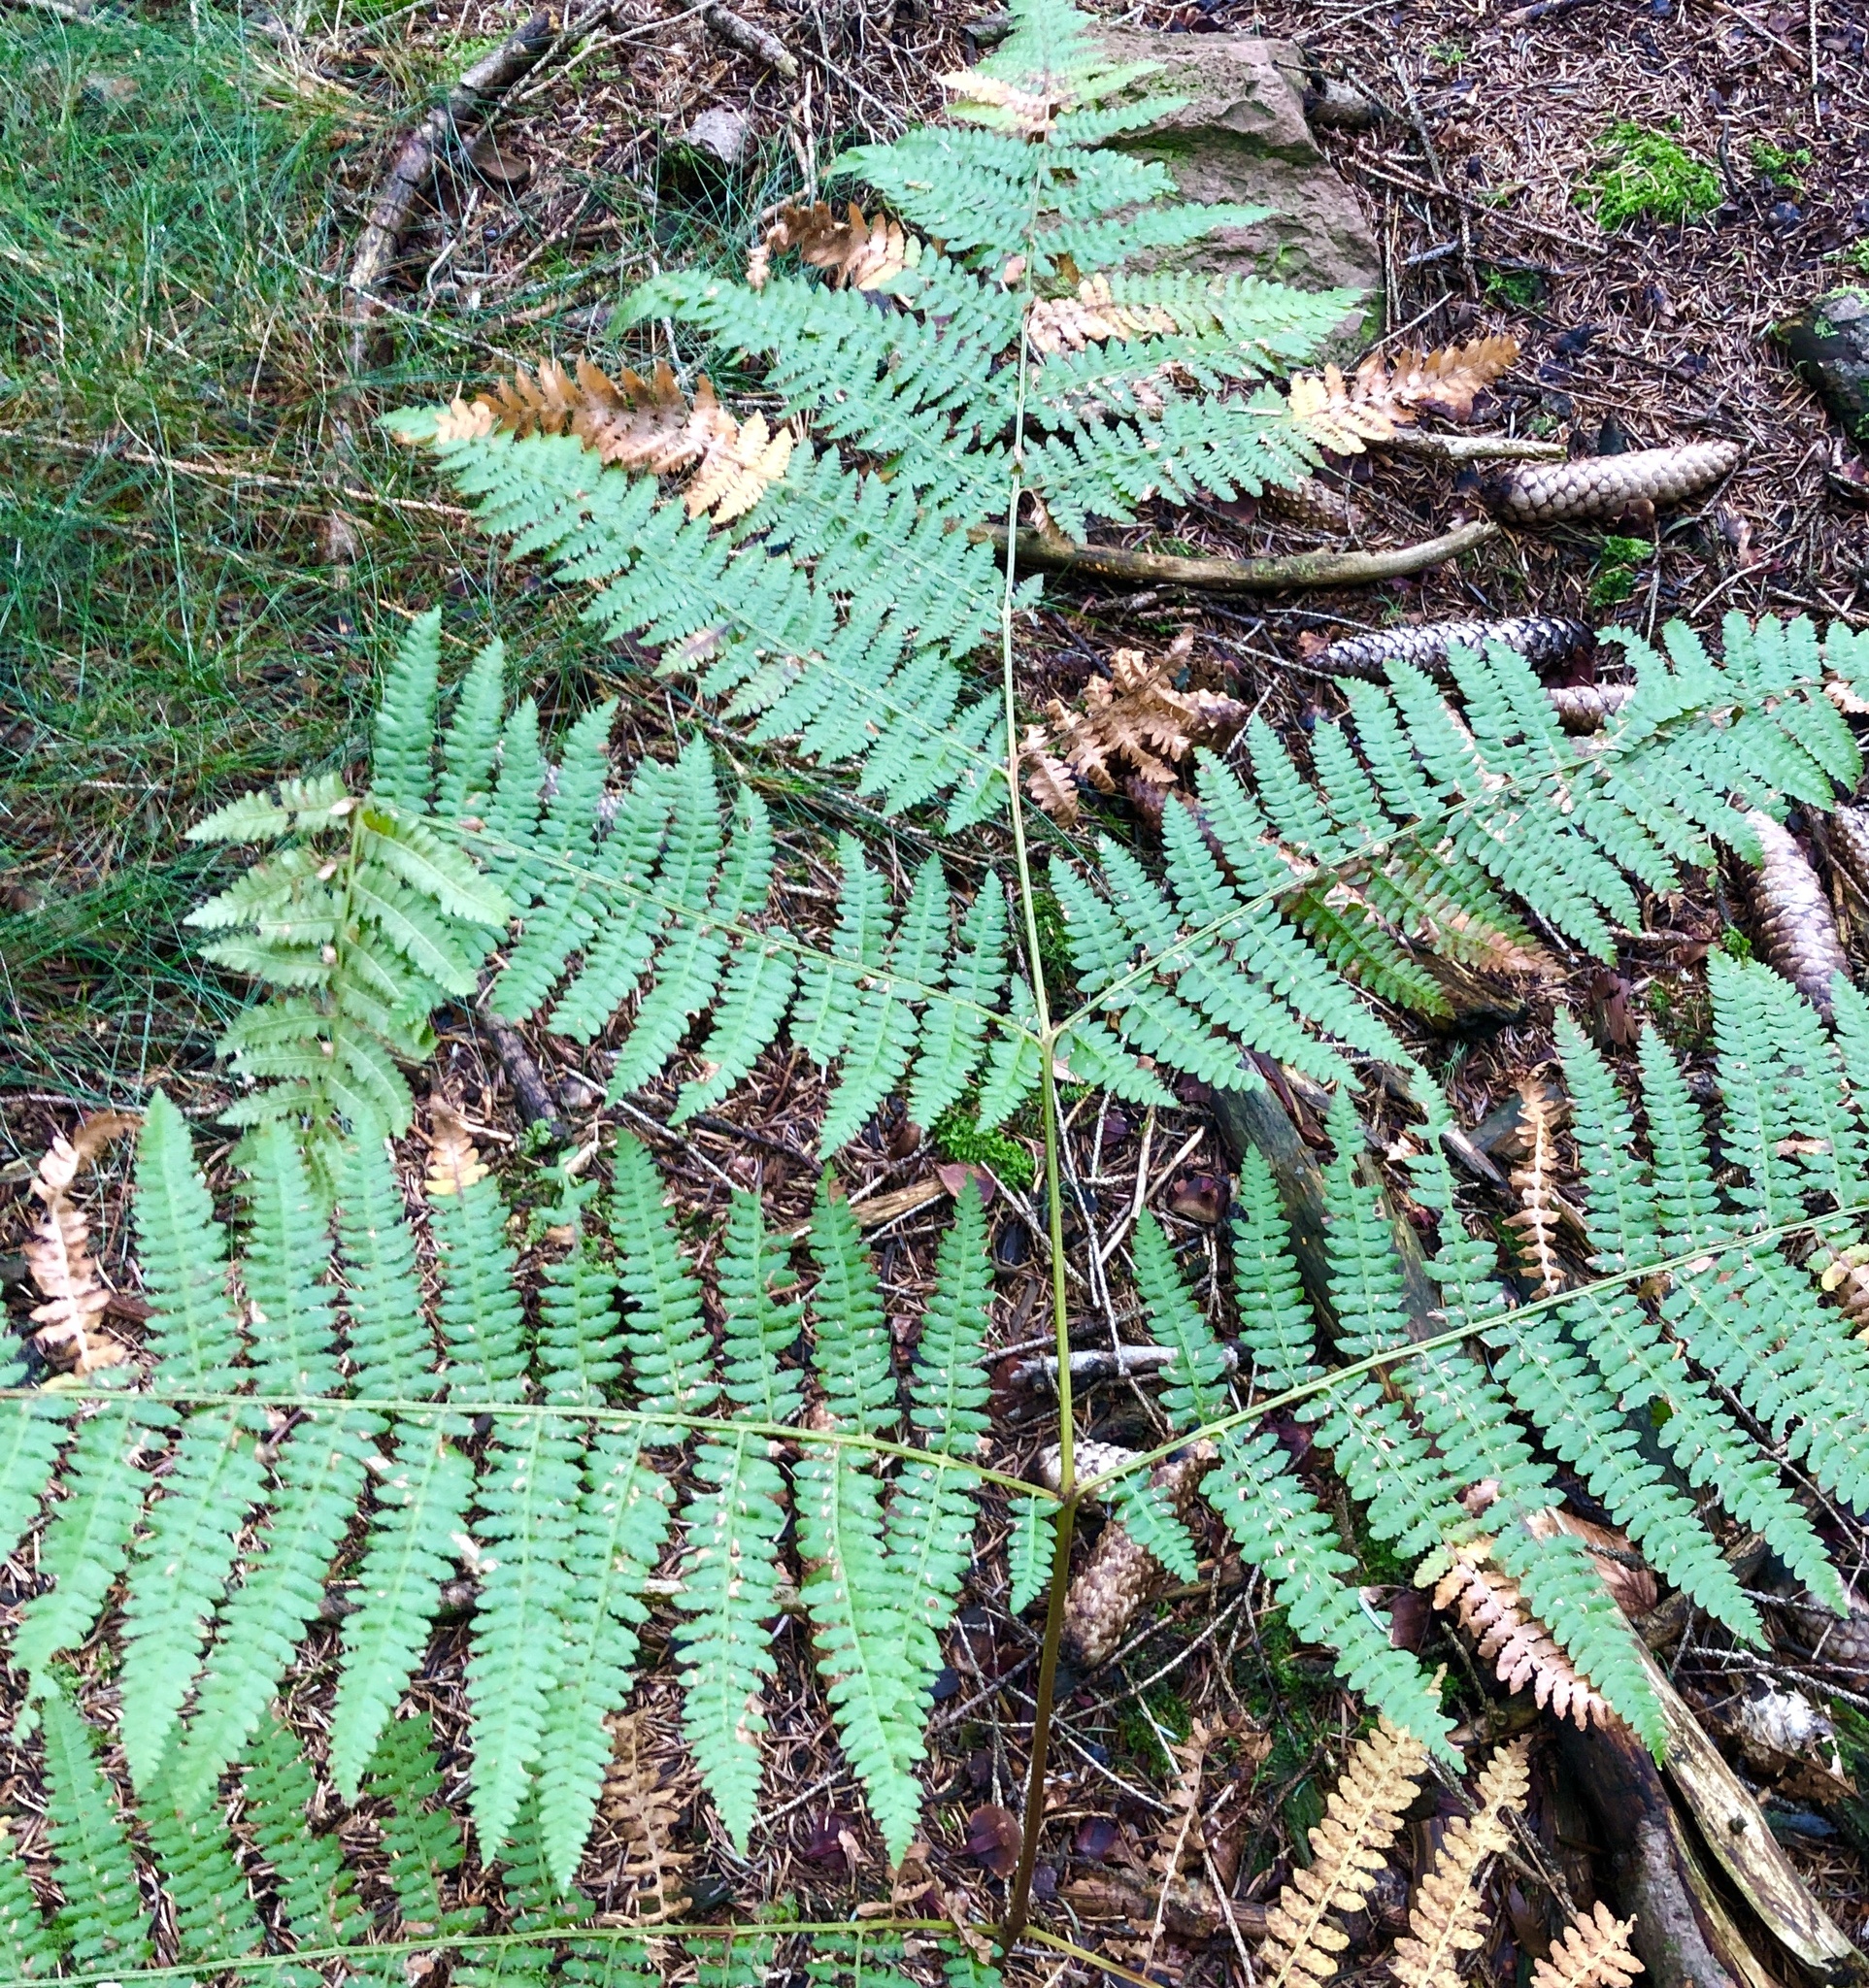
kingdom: Plantae
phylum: Tracheophyta
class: Polypodiopsida
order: Polypodiales
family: Dennstaedtiaceae
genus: Pteridium
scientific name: Pteridium aquilinum
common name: Bracken
